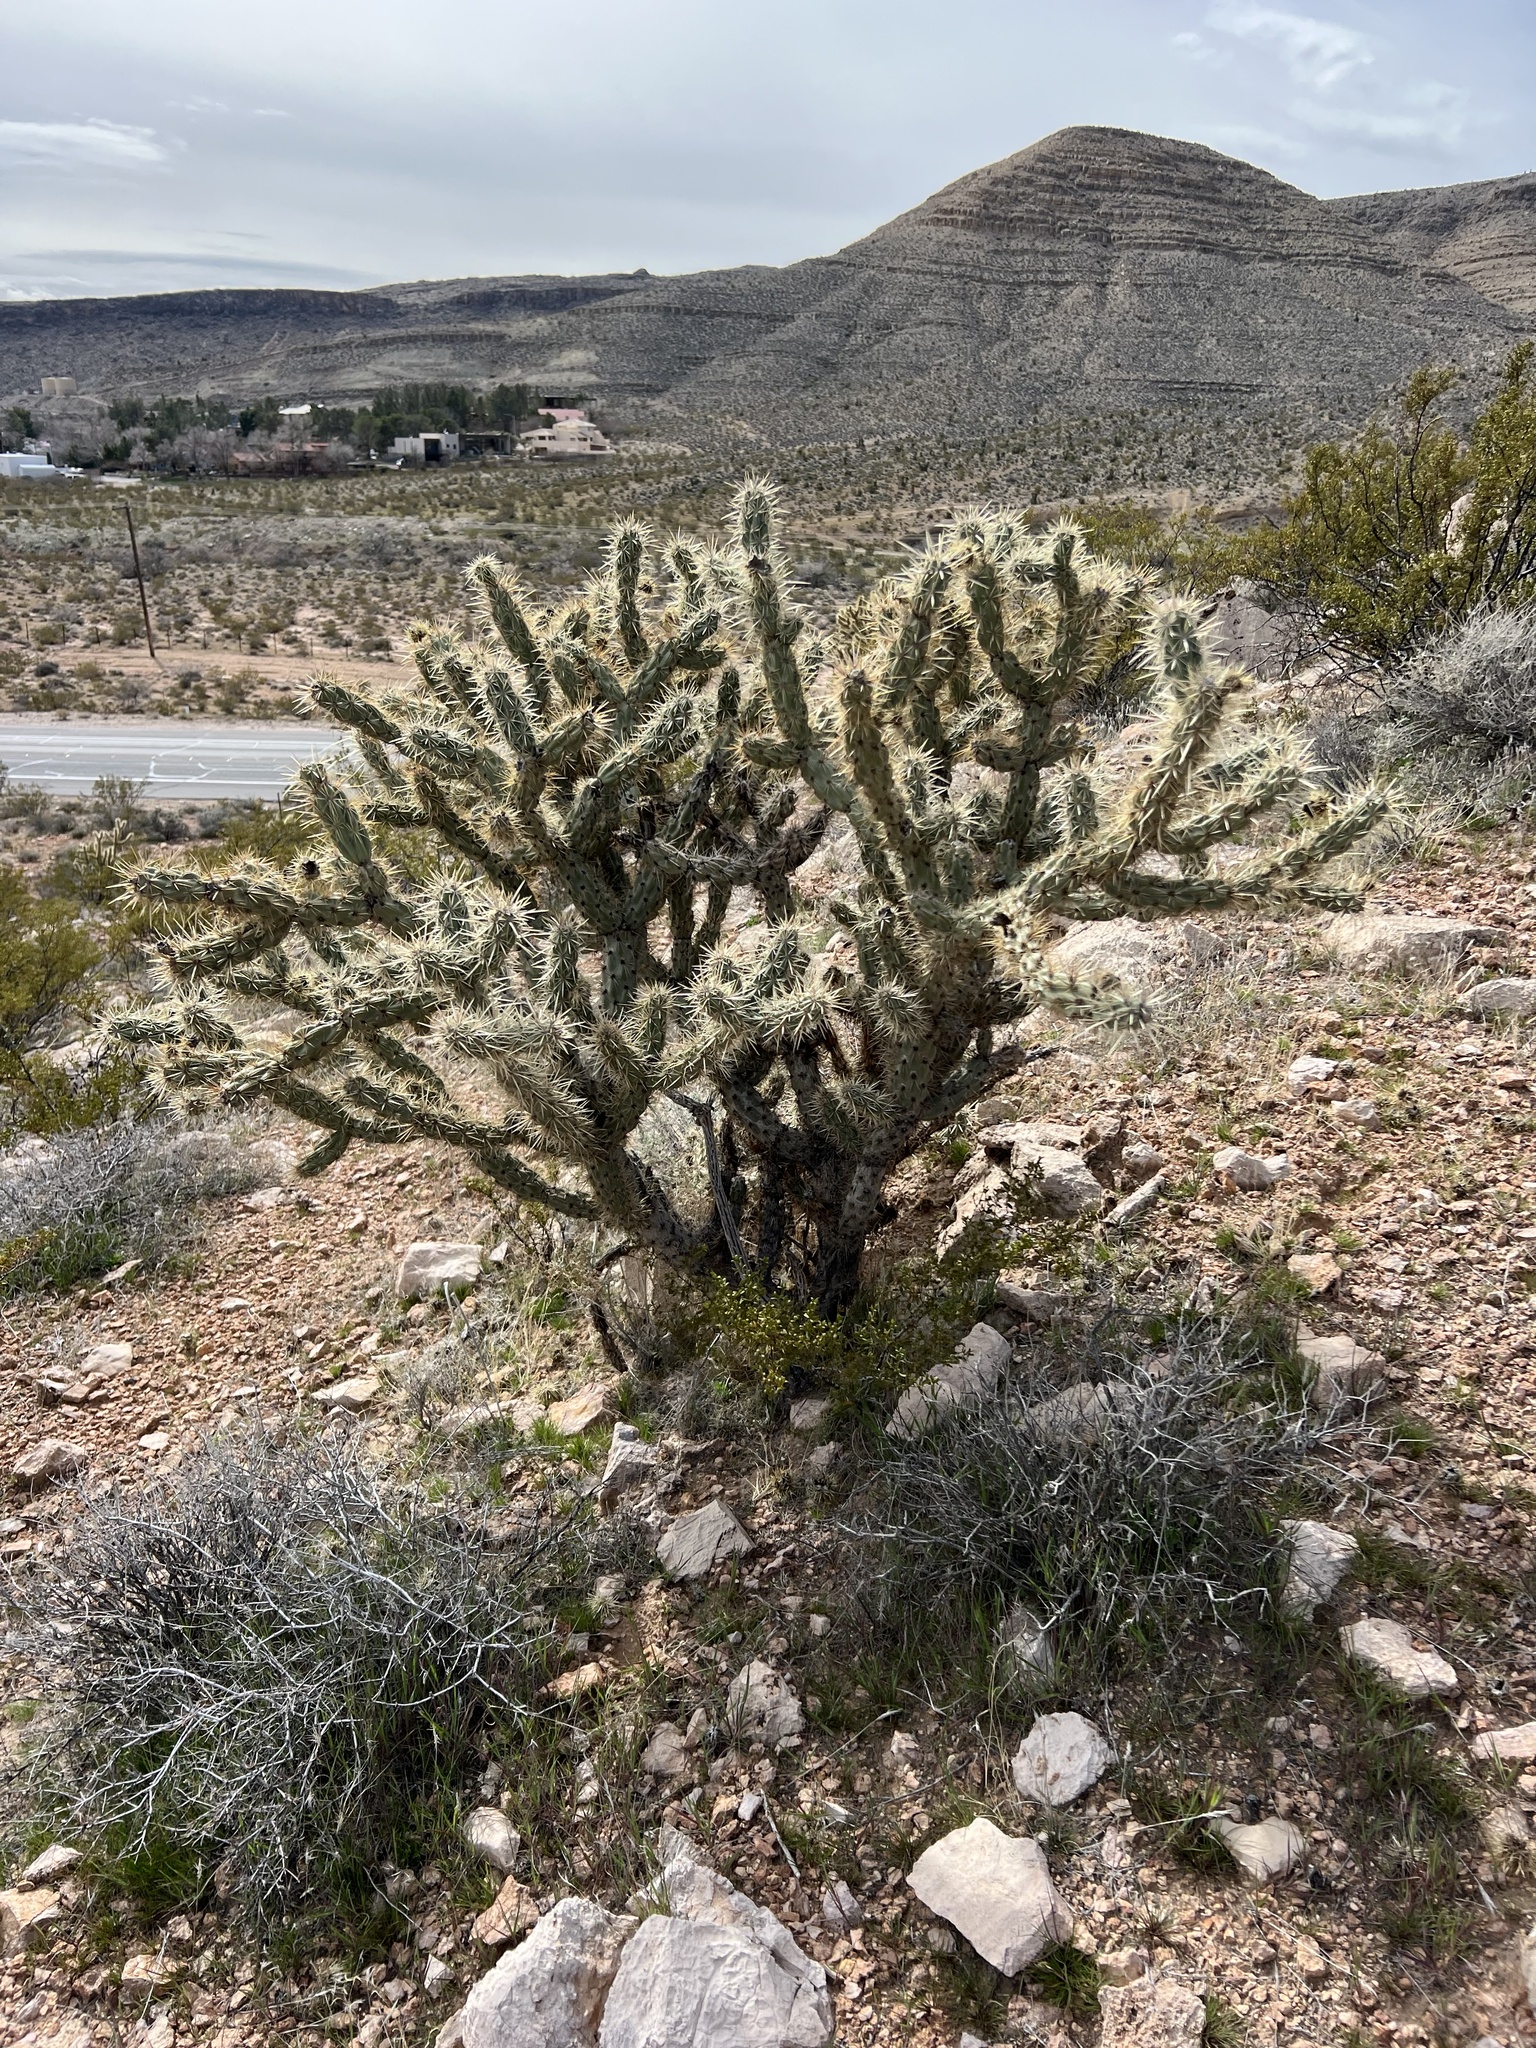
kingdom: Plantae
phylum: Tracheophyta
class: Magnoliopsida
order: Caryophyllales
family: Cactaceae
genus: Cylindropuntia
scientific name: Cylindropuntia acanthocarpa
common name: Buckhorn cholla
